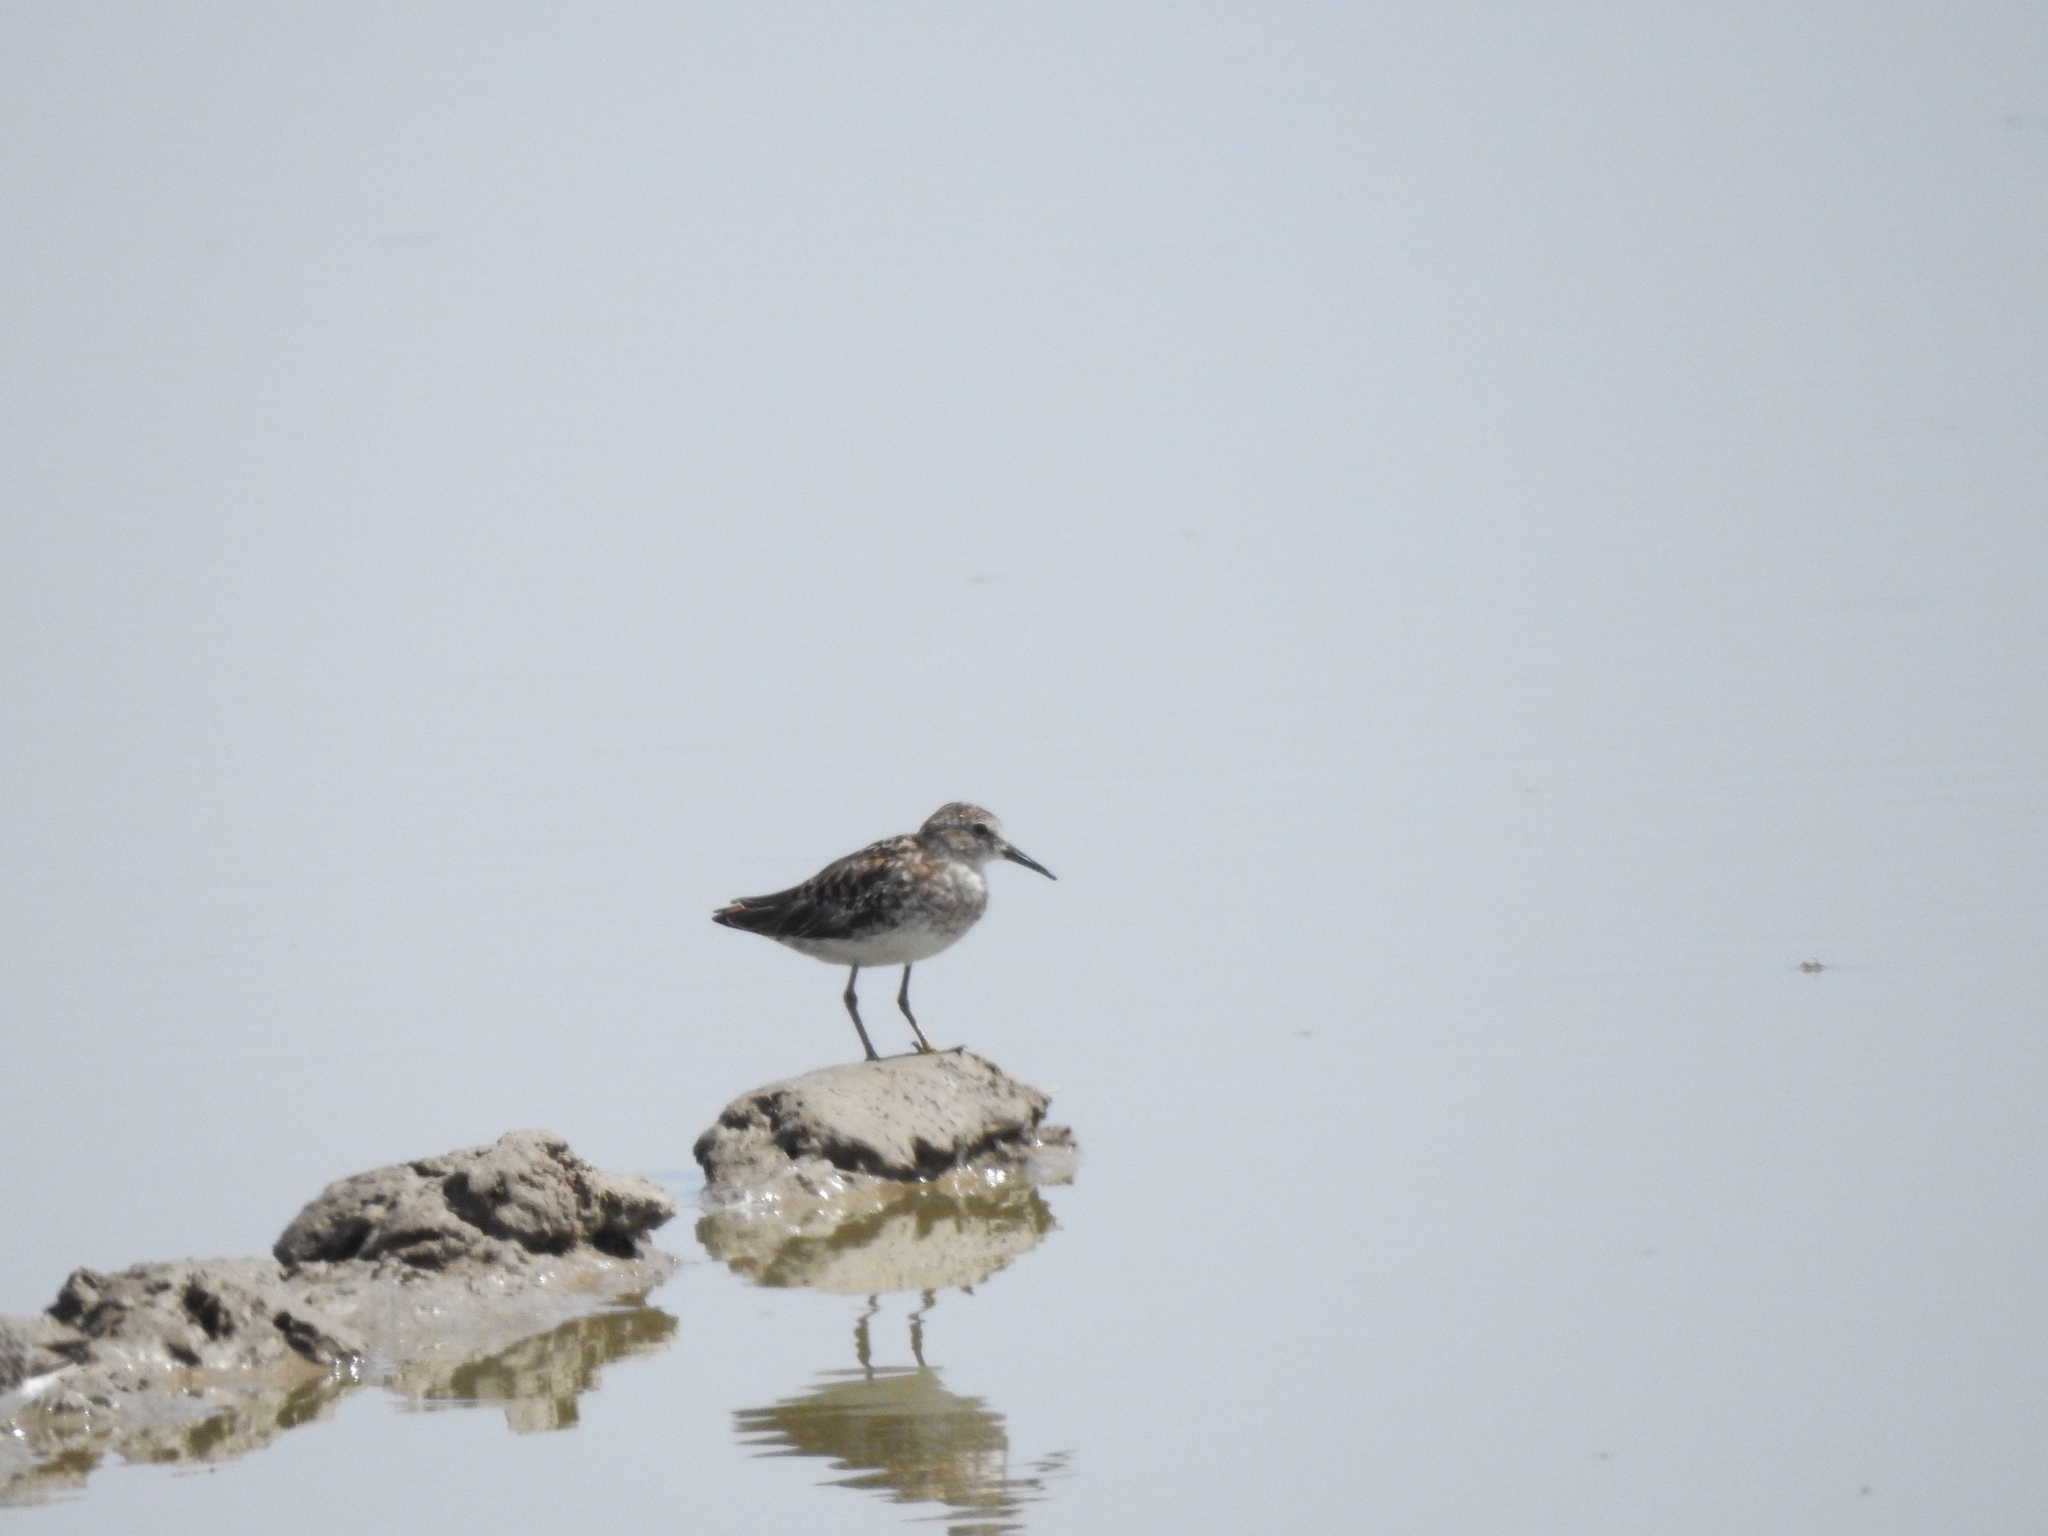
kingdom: Animalia
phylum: Chordata
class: Aves
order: Charadriiformes
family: Scolopacidae
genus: Calidris
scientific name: Calidris mauri
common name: Western sandpiper
